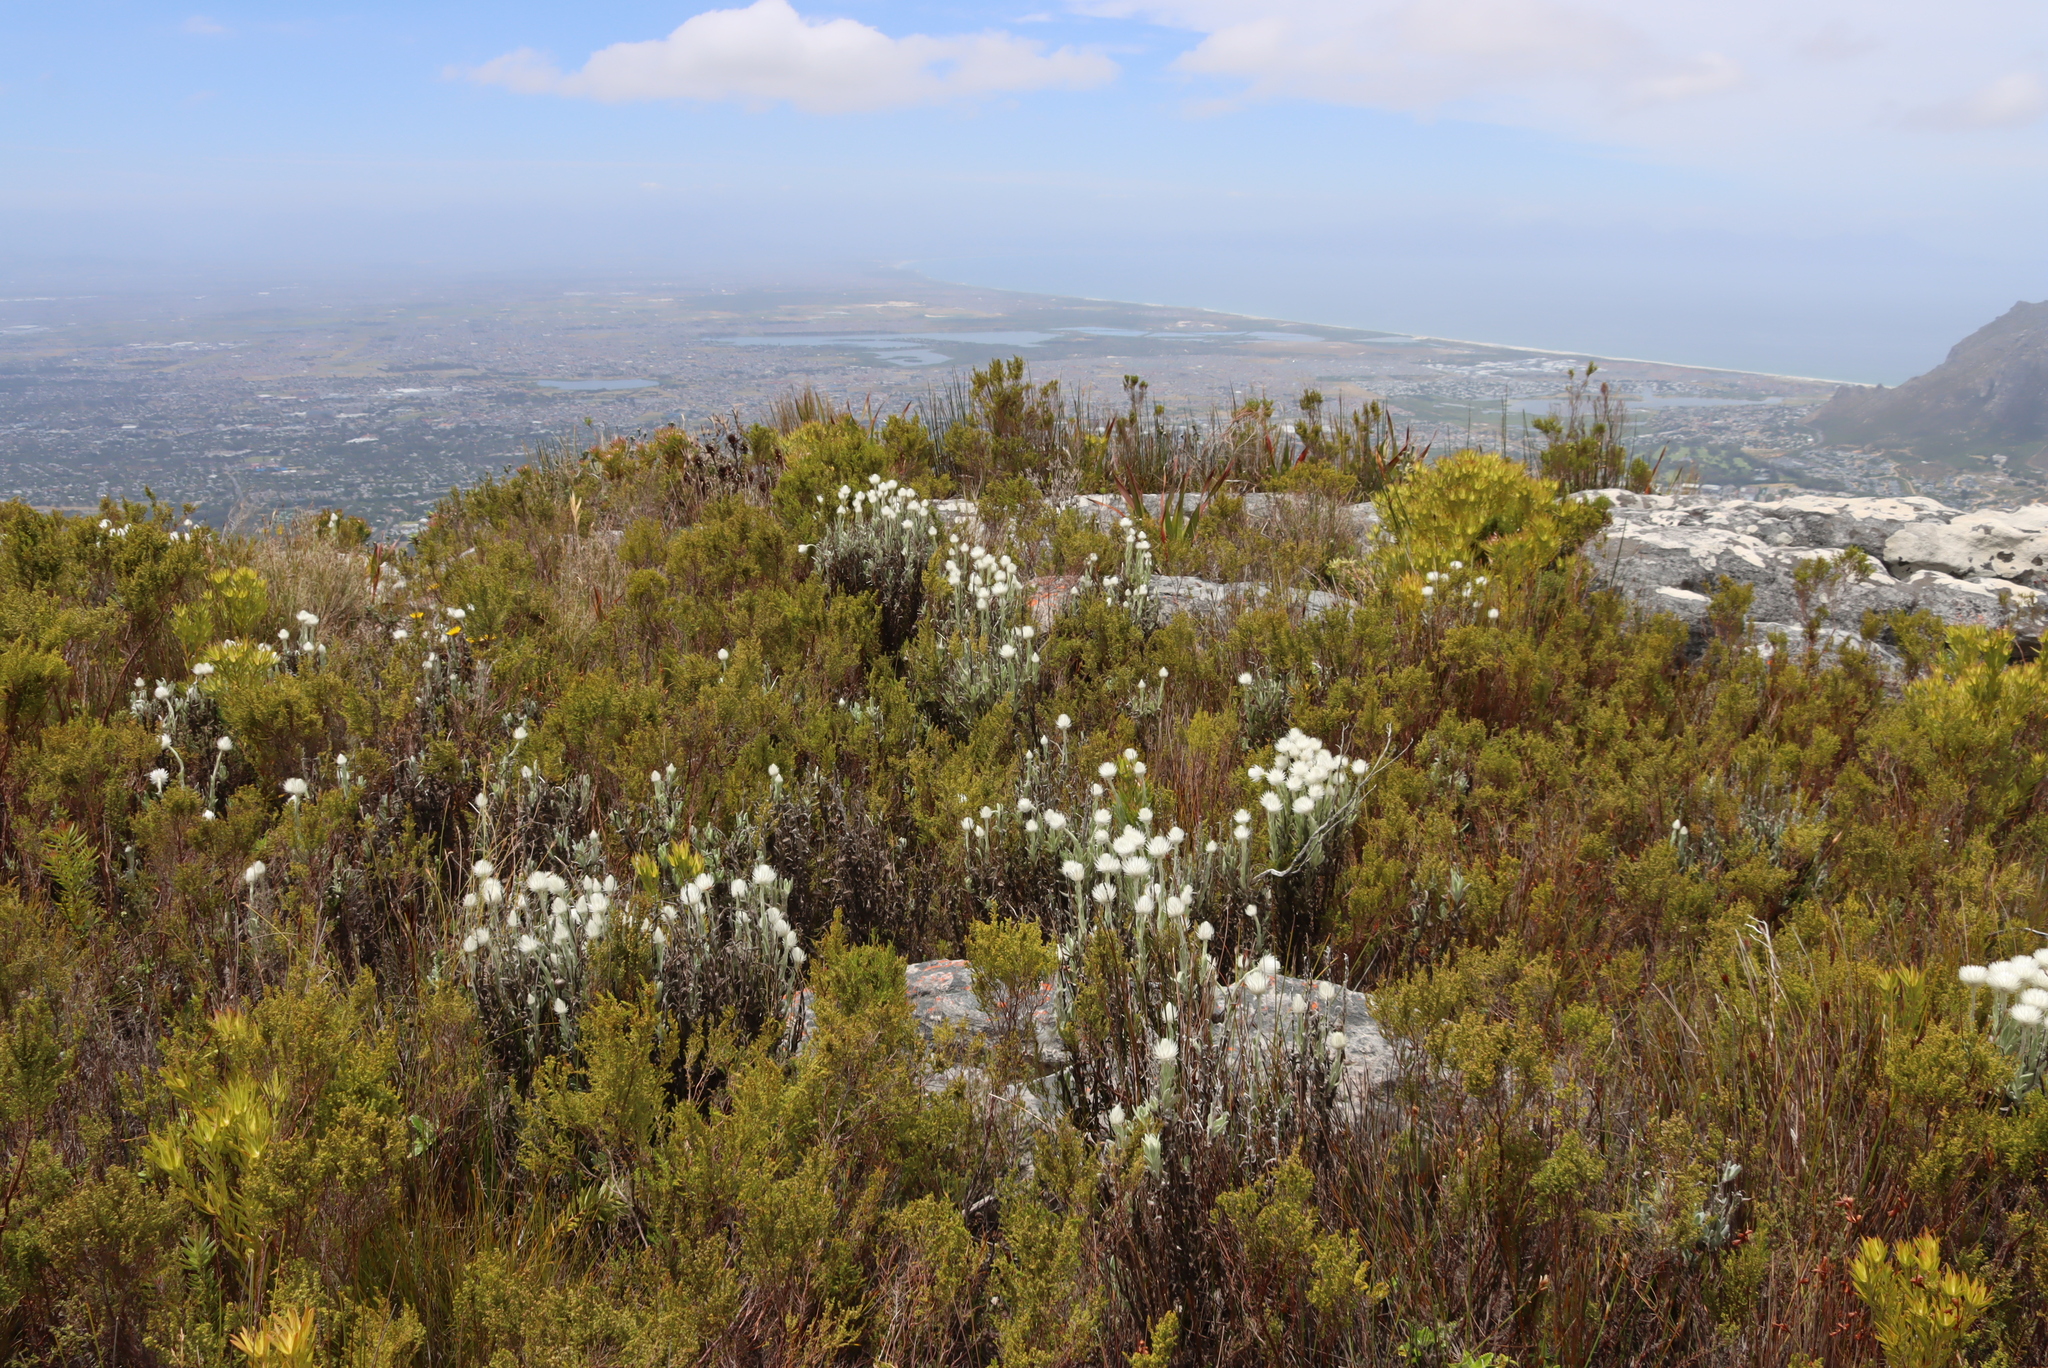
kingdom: Plantae
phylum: Tracheophyta
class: Magnoliopsida
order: Asterales
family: Asteraceae
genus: Syncarpha
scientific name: Syncarpha vestita
